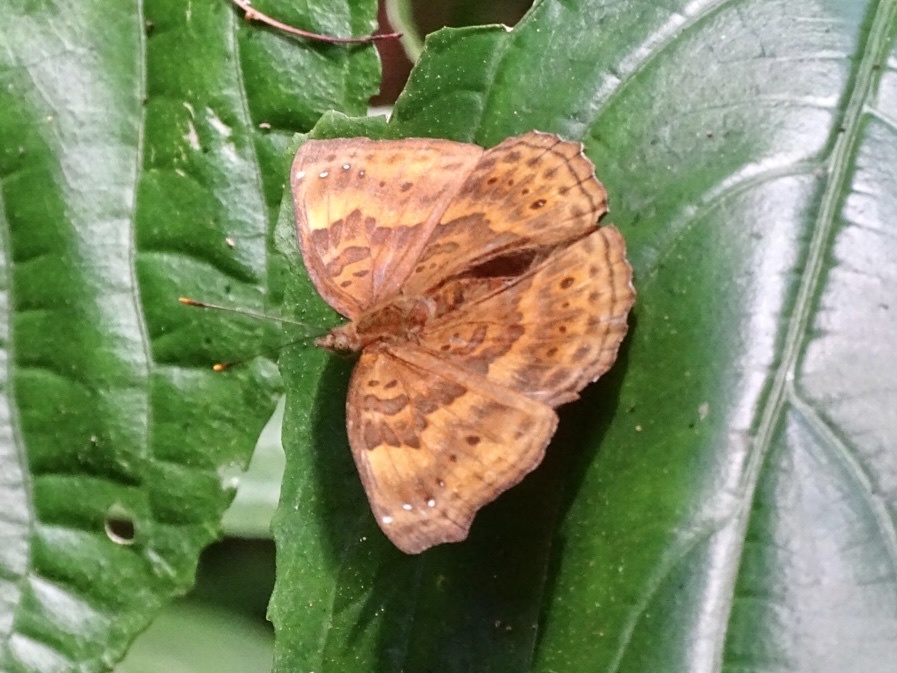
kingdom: Animalia
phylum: Arthropoda
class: Insecta
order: Lepidoptera
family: Nymphalidae
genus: Apatura
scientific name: Apatura Rohana spec
